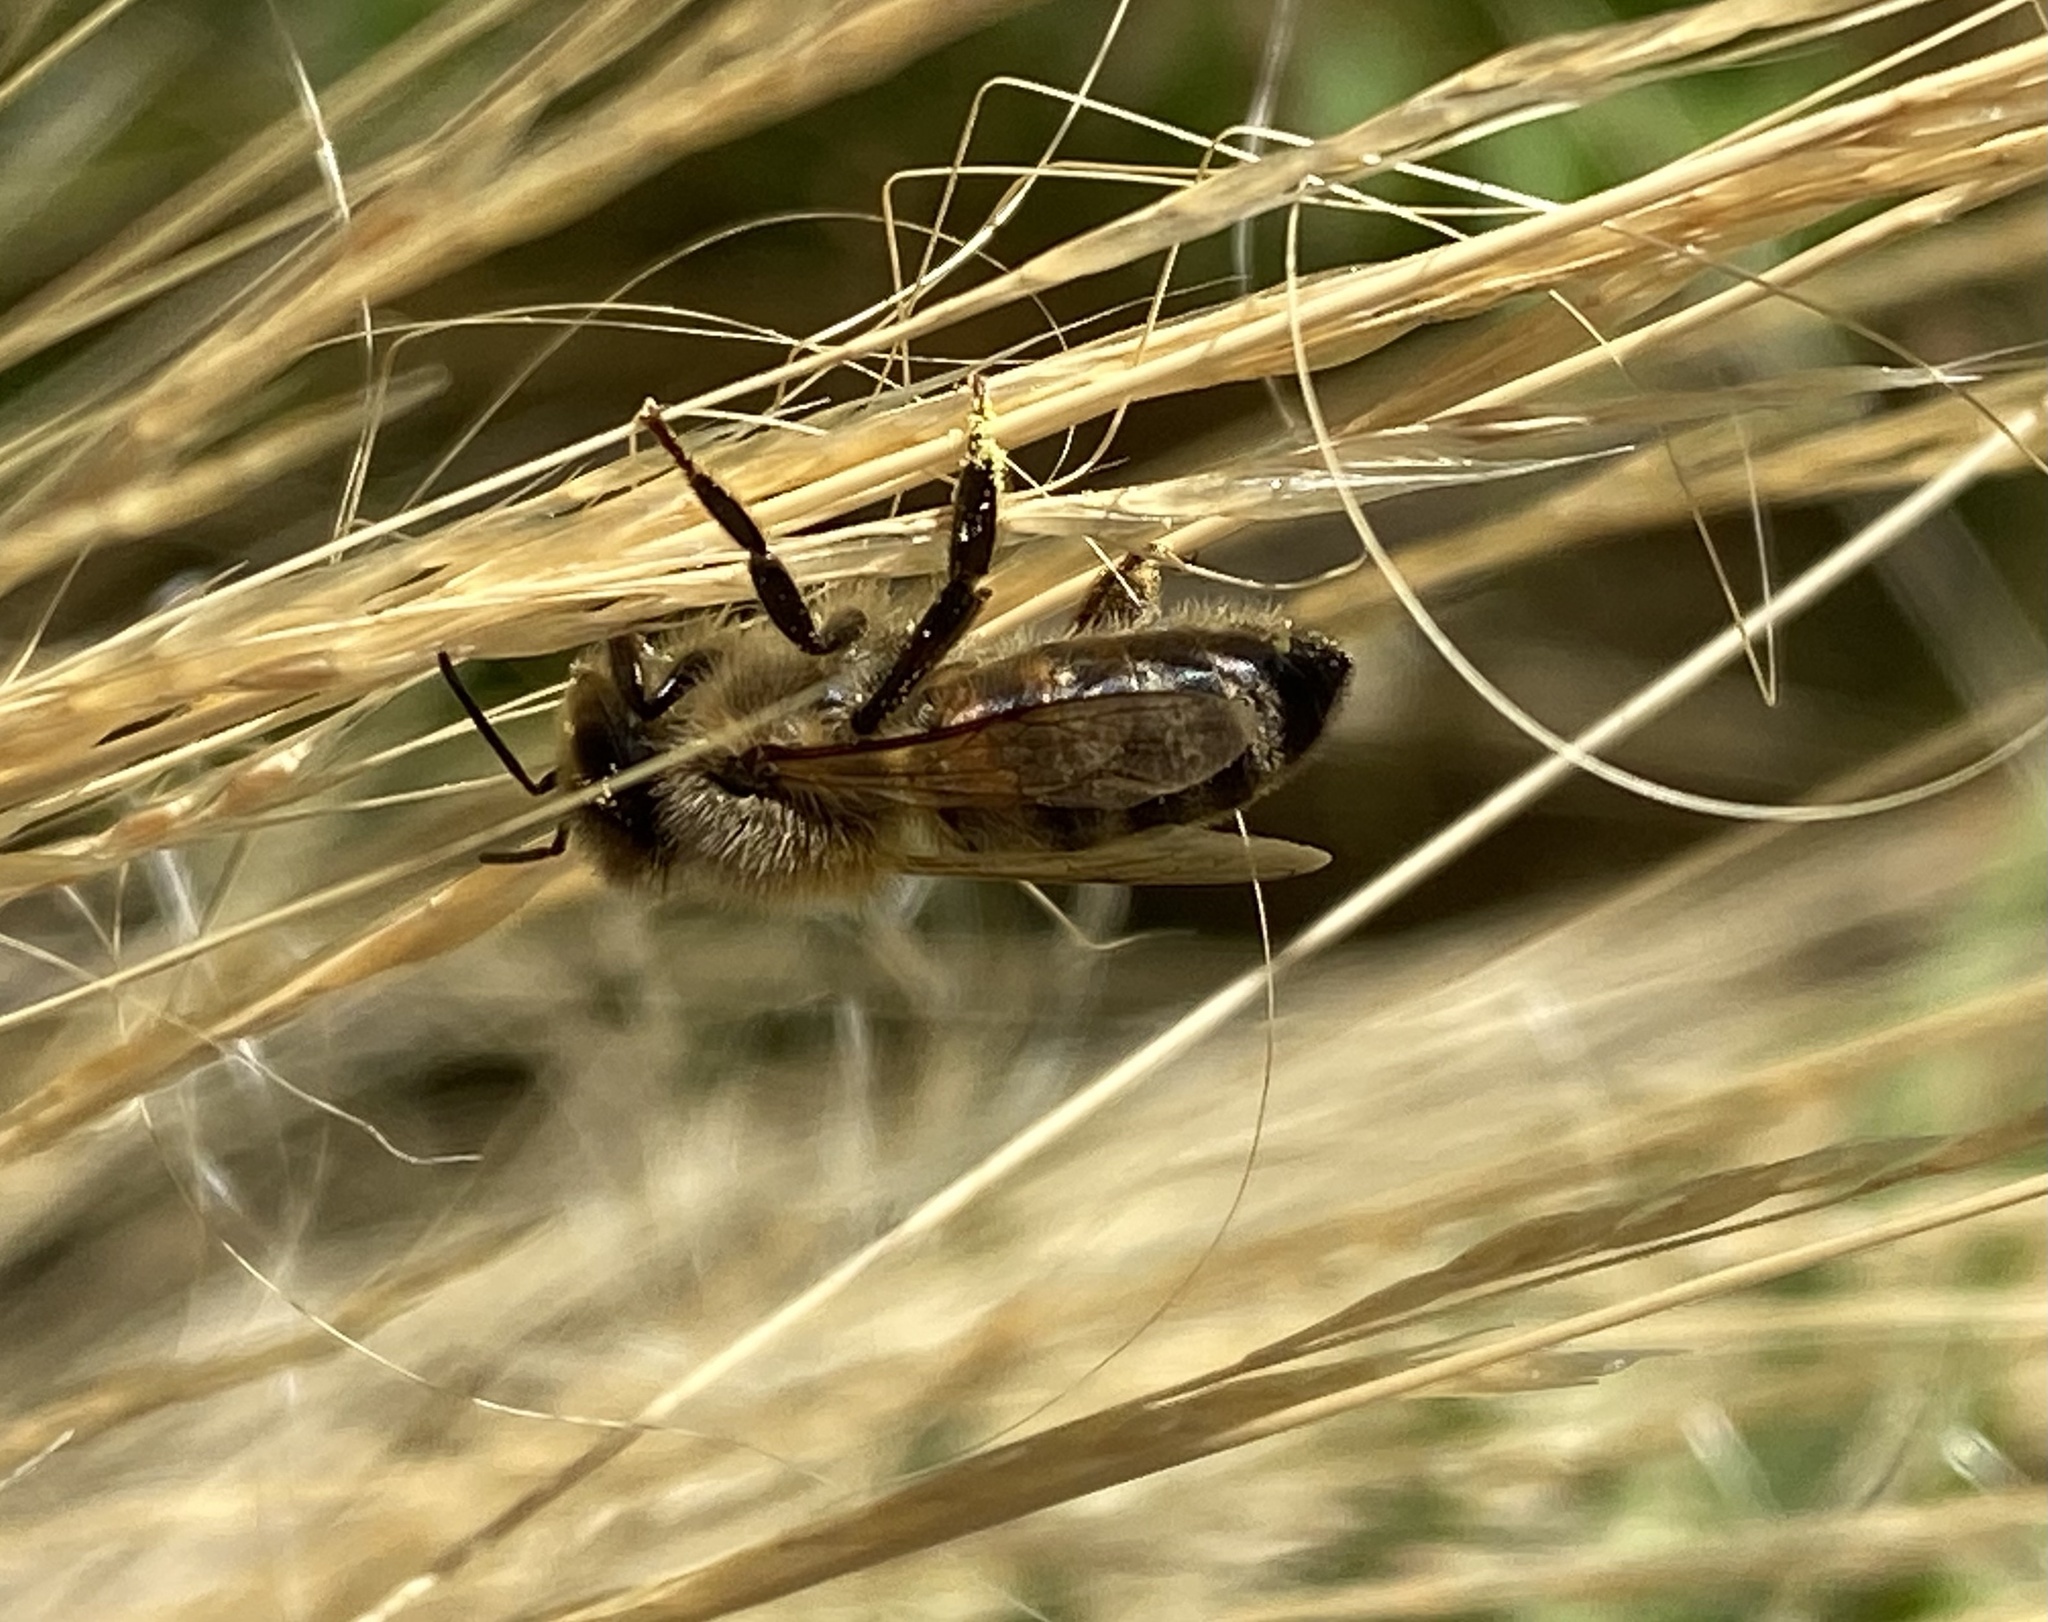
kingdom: Animalia
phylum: Arthropoda
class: Insecta
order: Hymenoptera
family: Apidae
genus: Apis
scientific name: Apis mellifera
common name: Honey bee
